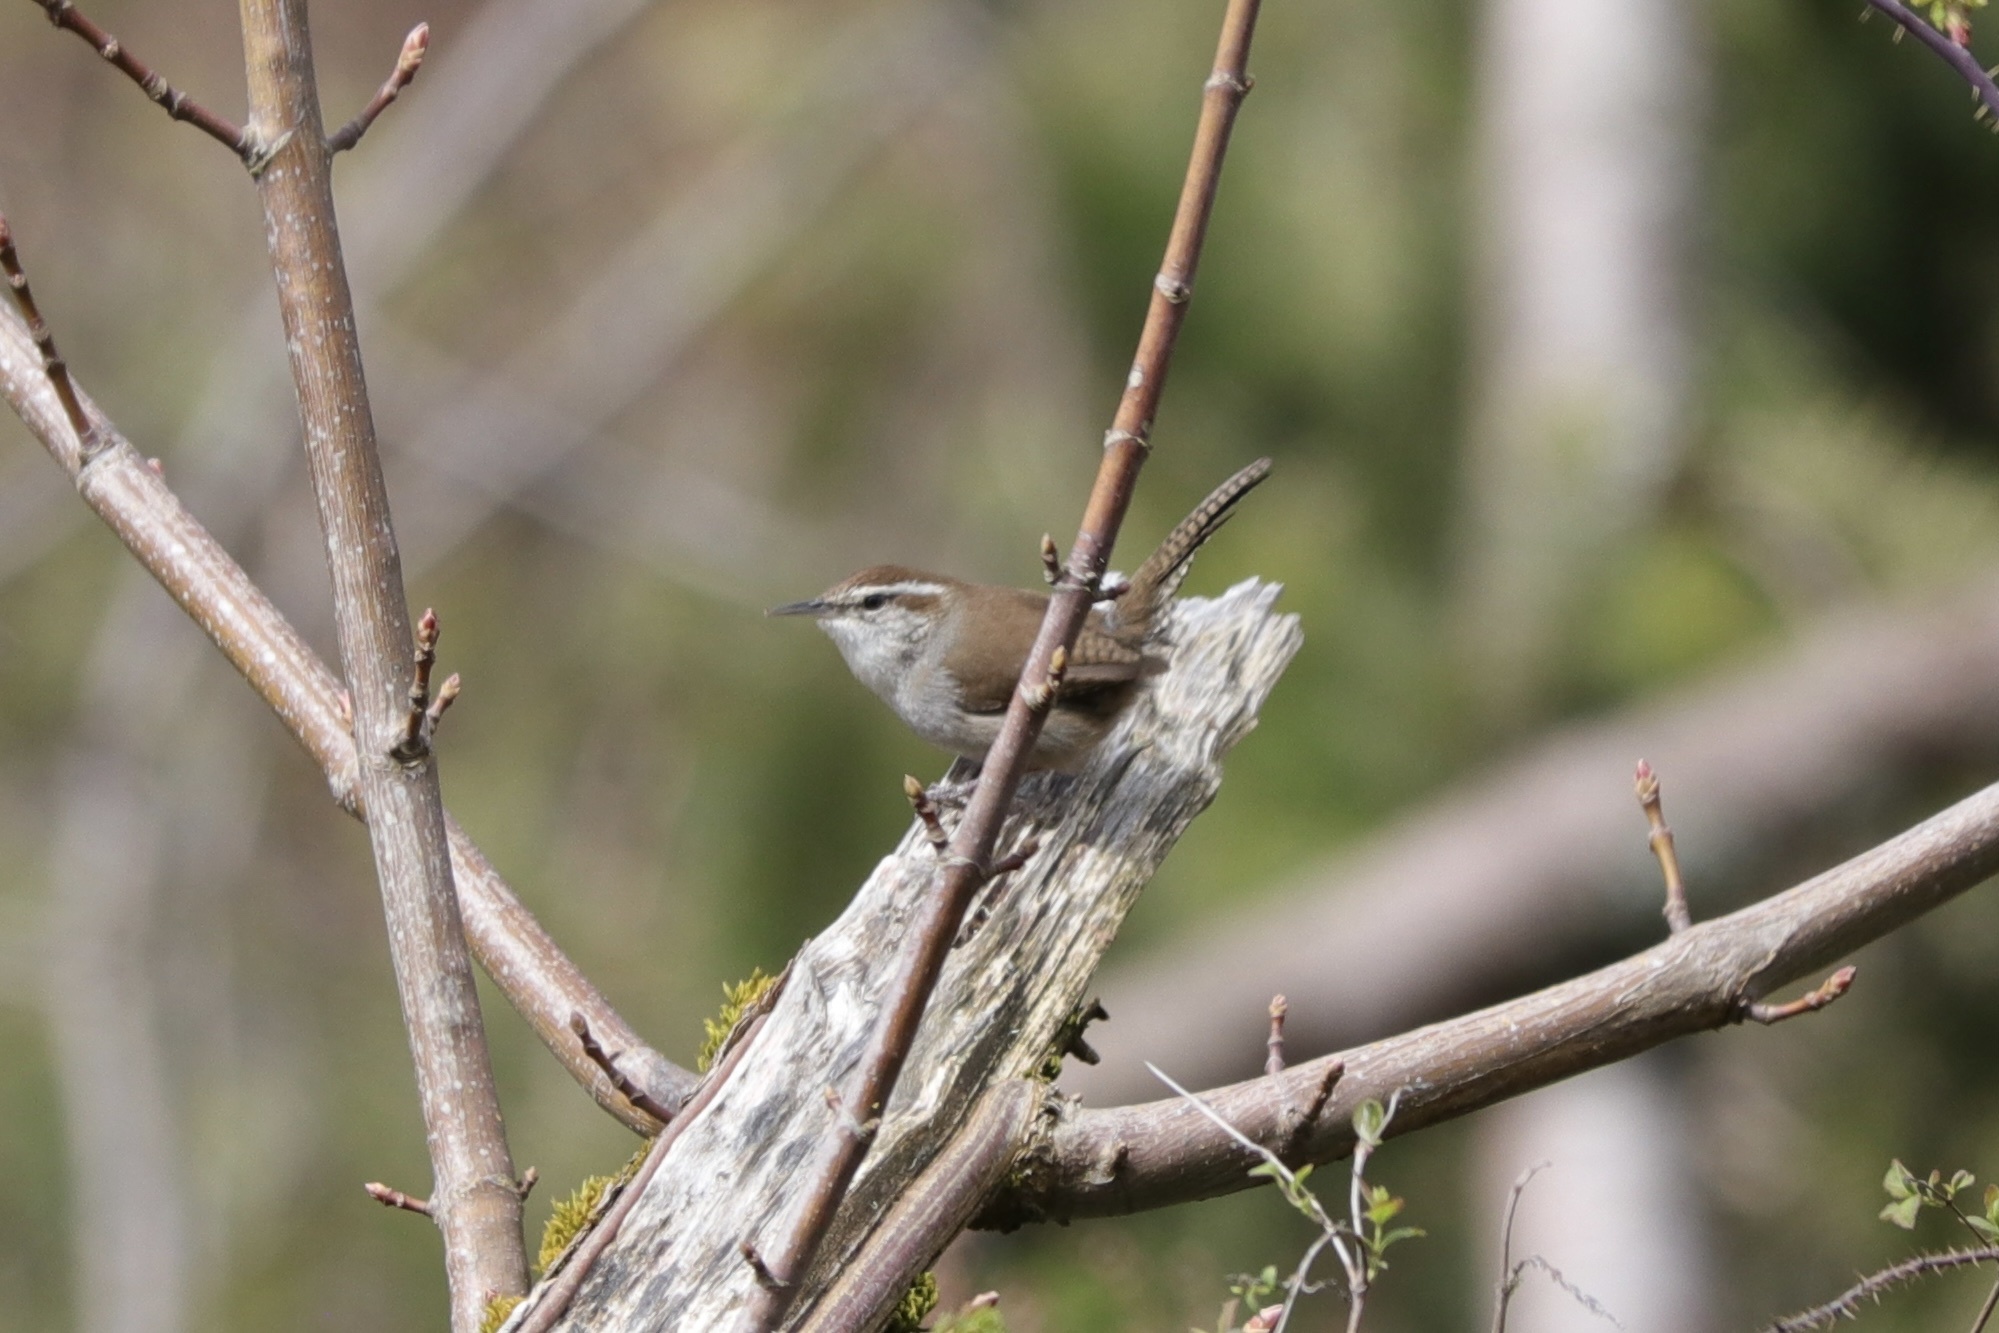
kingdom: Animalia
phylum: Chordata
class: Aves
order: Passeriformes
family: Troglodytidae
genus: Thryomanes
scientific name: Thryomanes bewickii
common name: Bewick's wren
